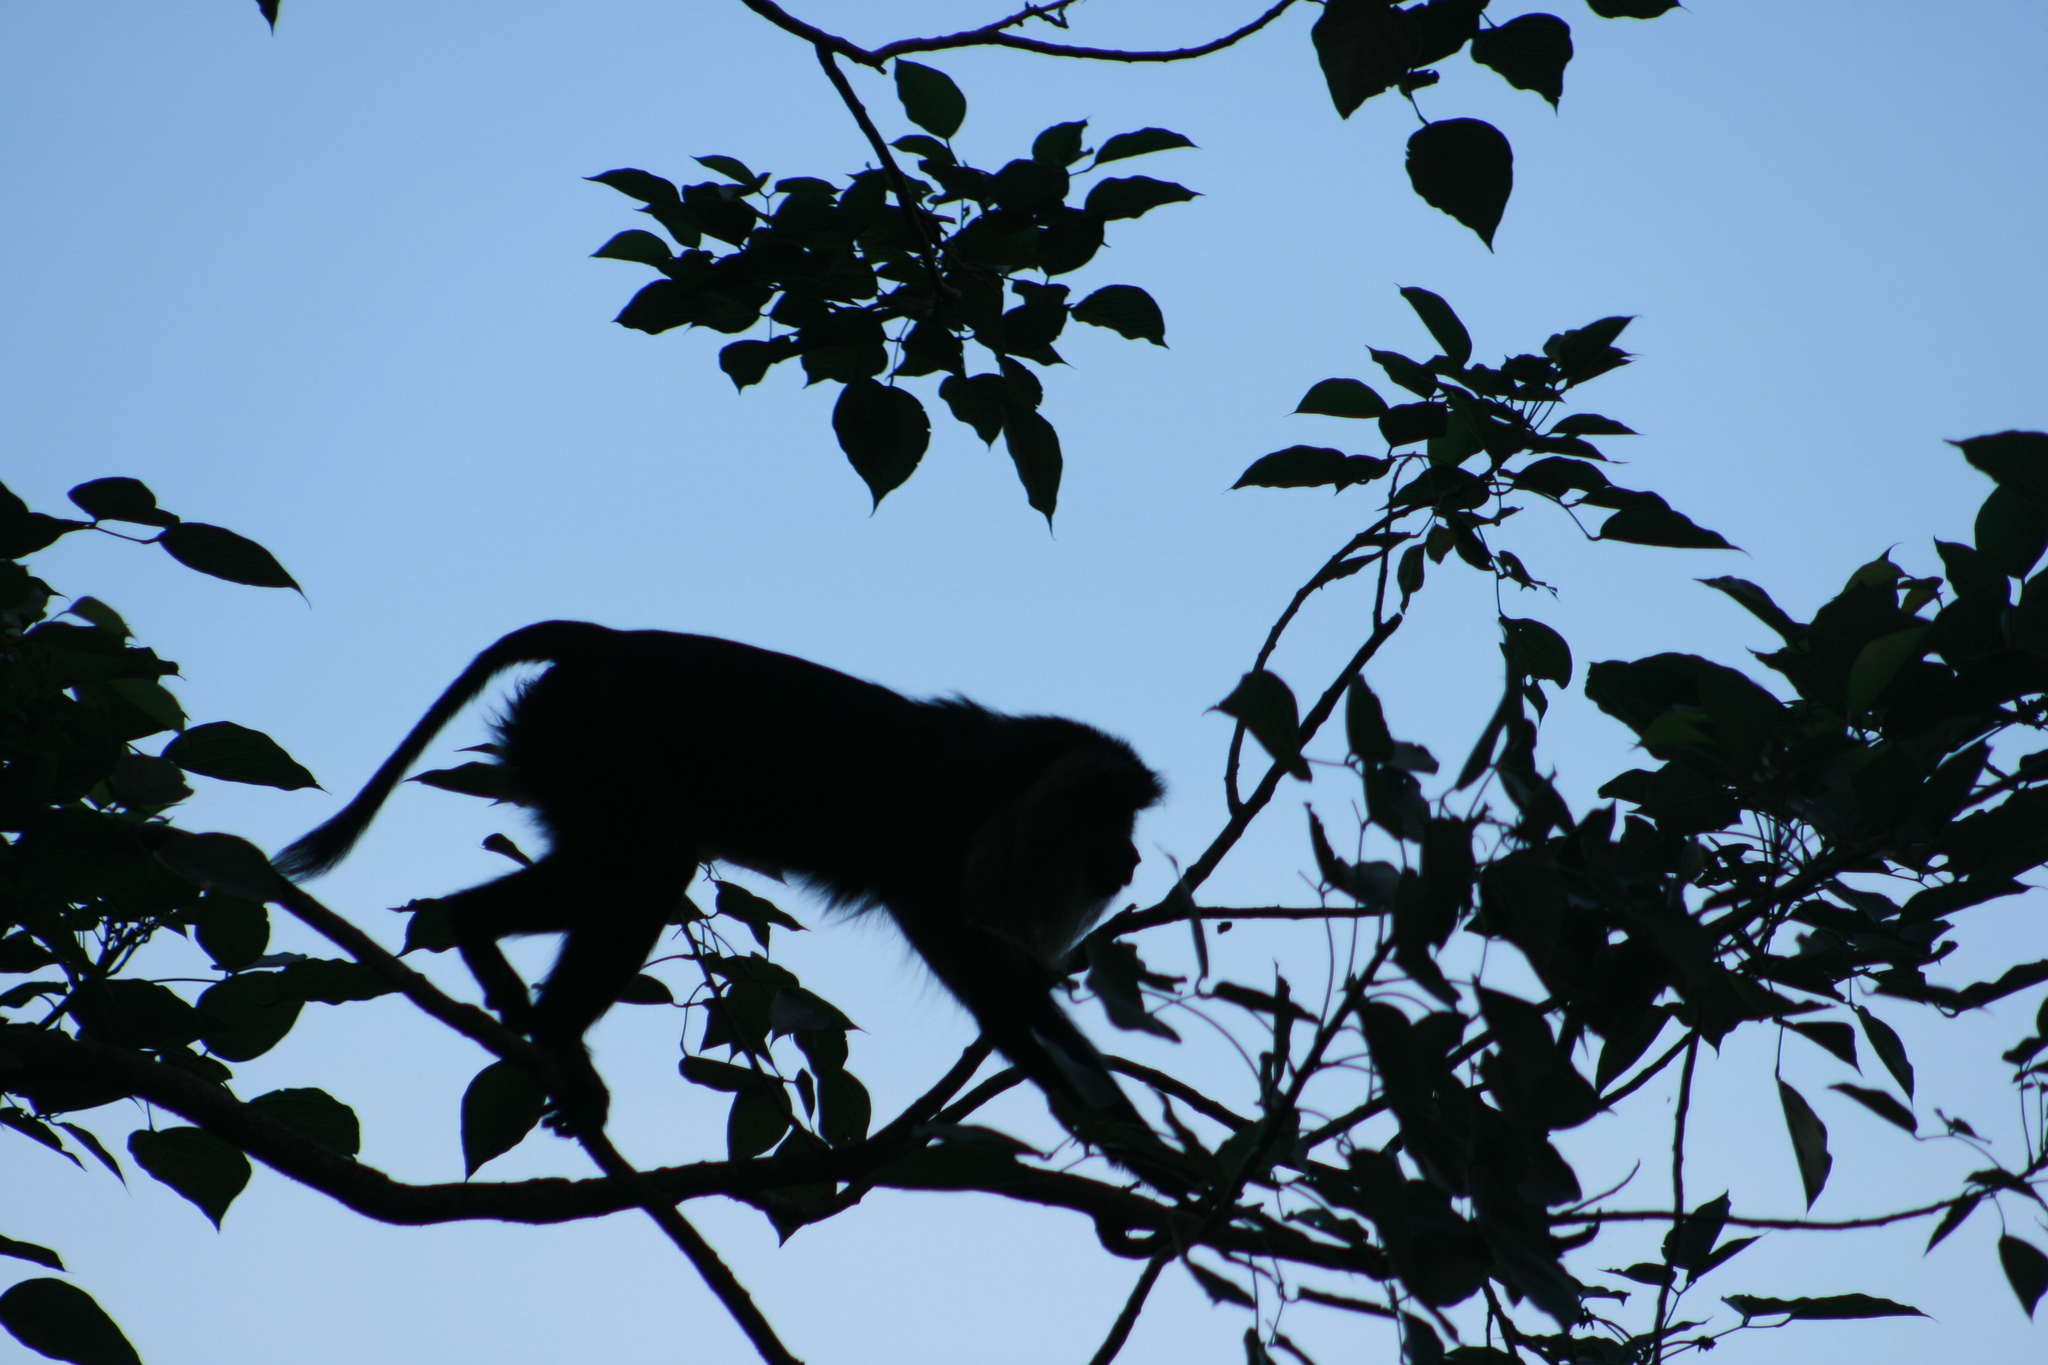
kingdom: Animalia
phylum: Chordata
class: Mammalia
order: Primates
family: Cercopithecidae
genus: Macaca
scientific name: Macaca silenus
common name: Lion-tailed macaque
